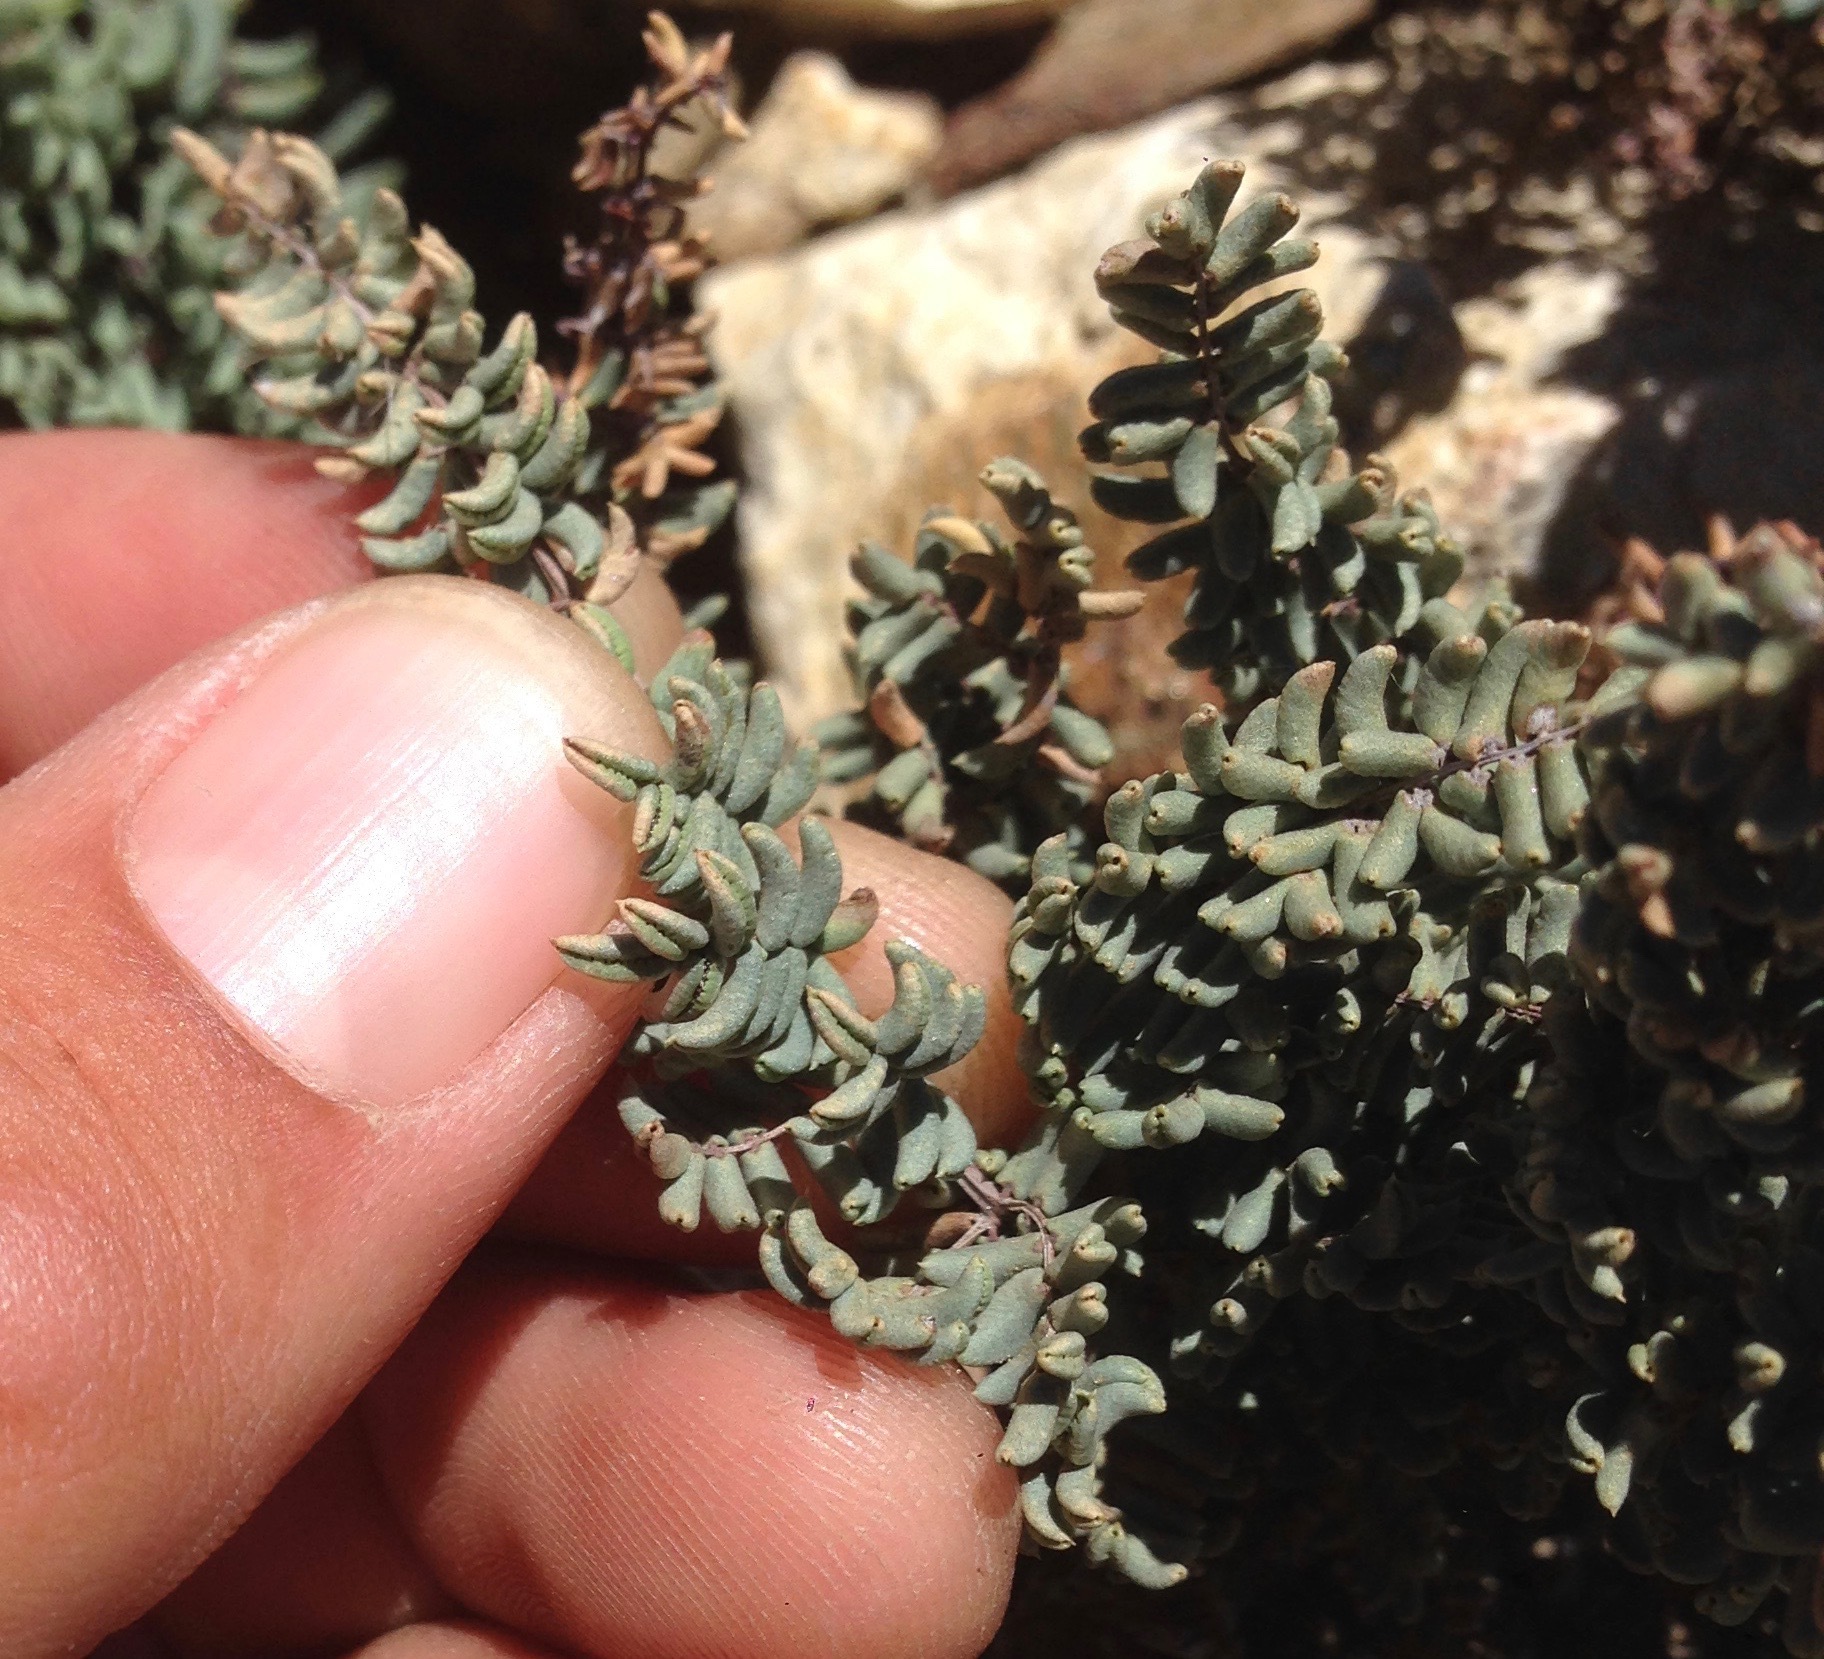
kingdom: Plantae
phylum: Tracheophyta
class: Polypodiopsida
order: Polypodiales
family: Pteridaceae
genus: Pellaea
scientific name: Pellaea mucronata
